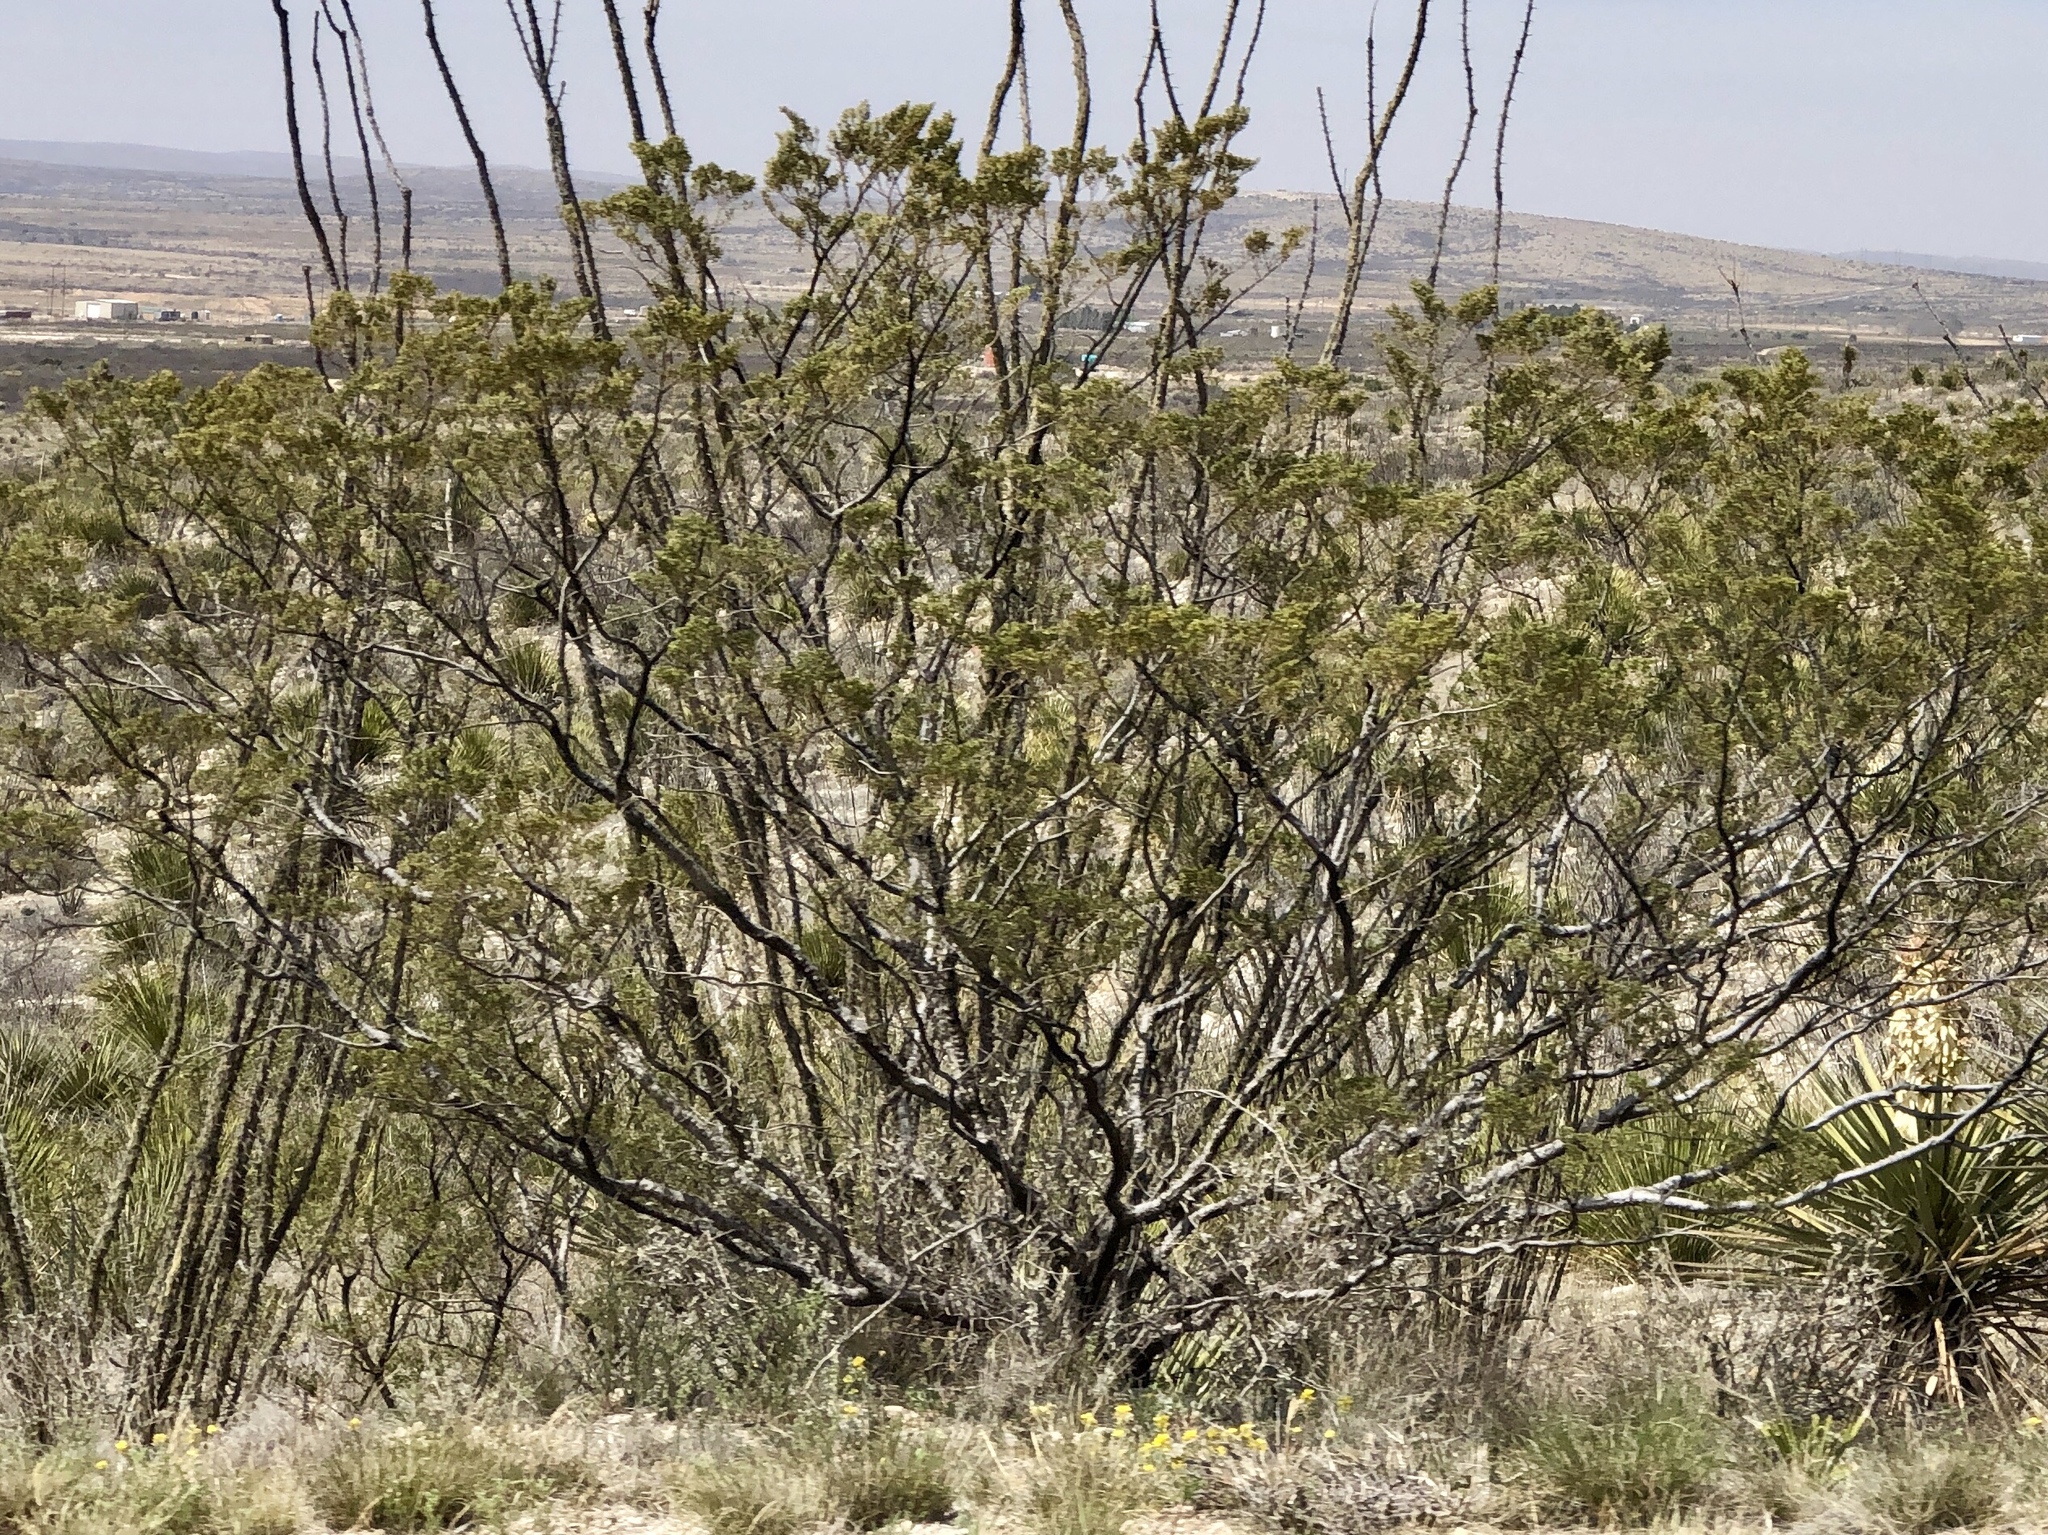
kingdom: Plantae
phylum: Tracheophyta
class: Magnoliopsida
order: Zygophyllales
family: Zygophyllaceae
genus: Larrea
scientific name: Larrea tridentata
